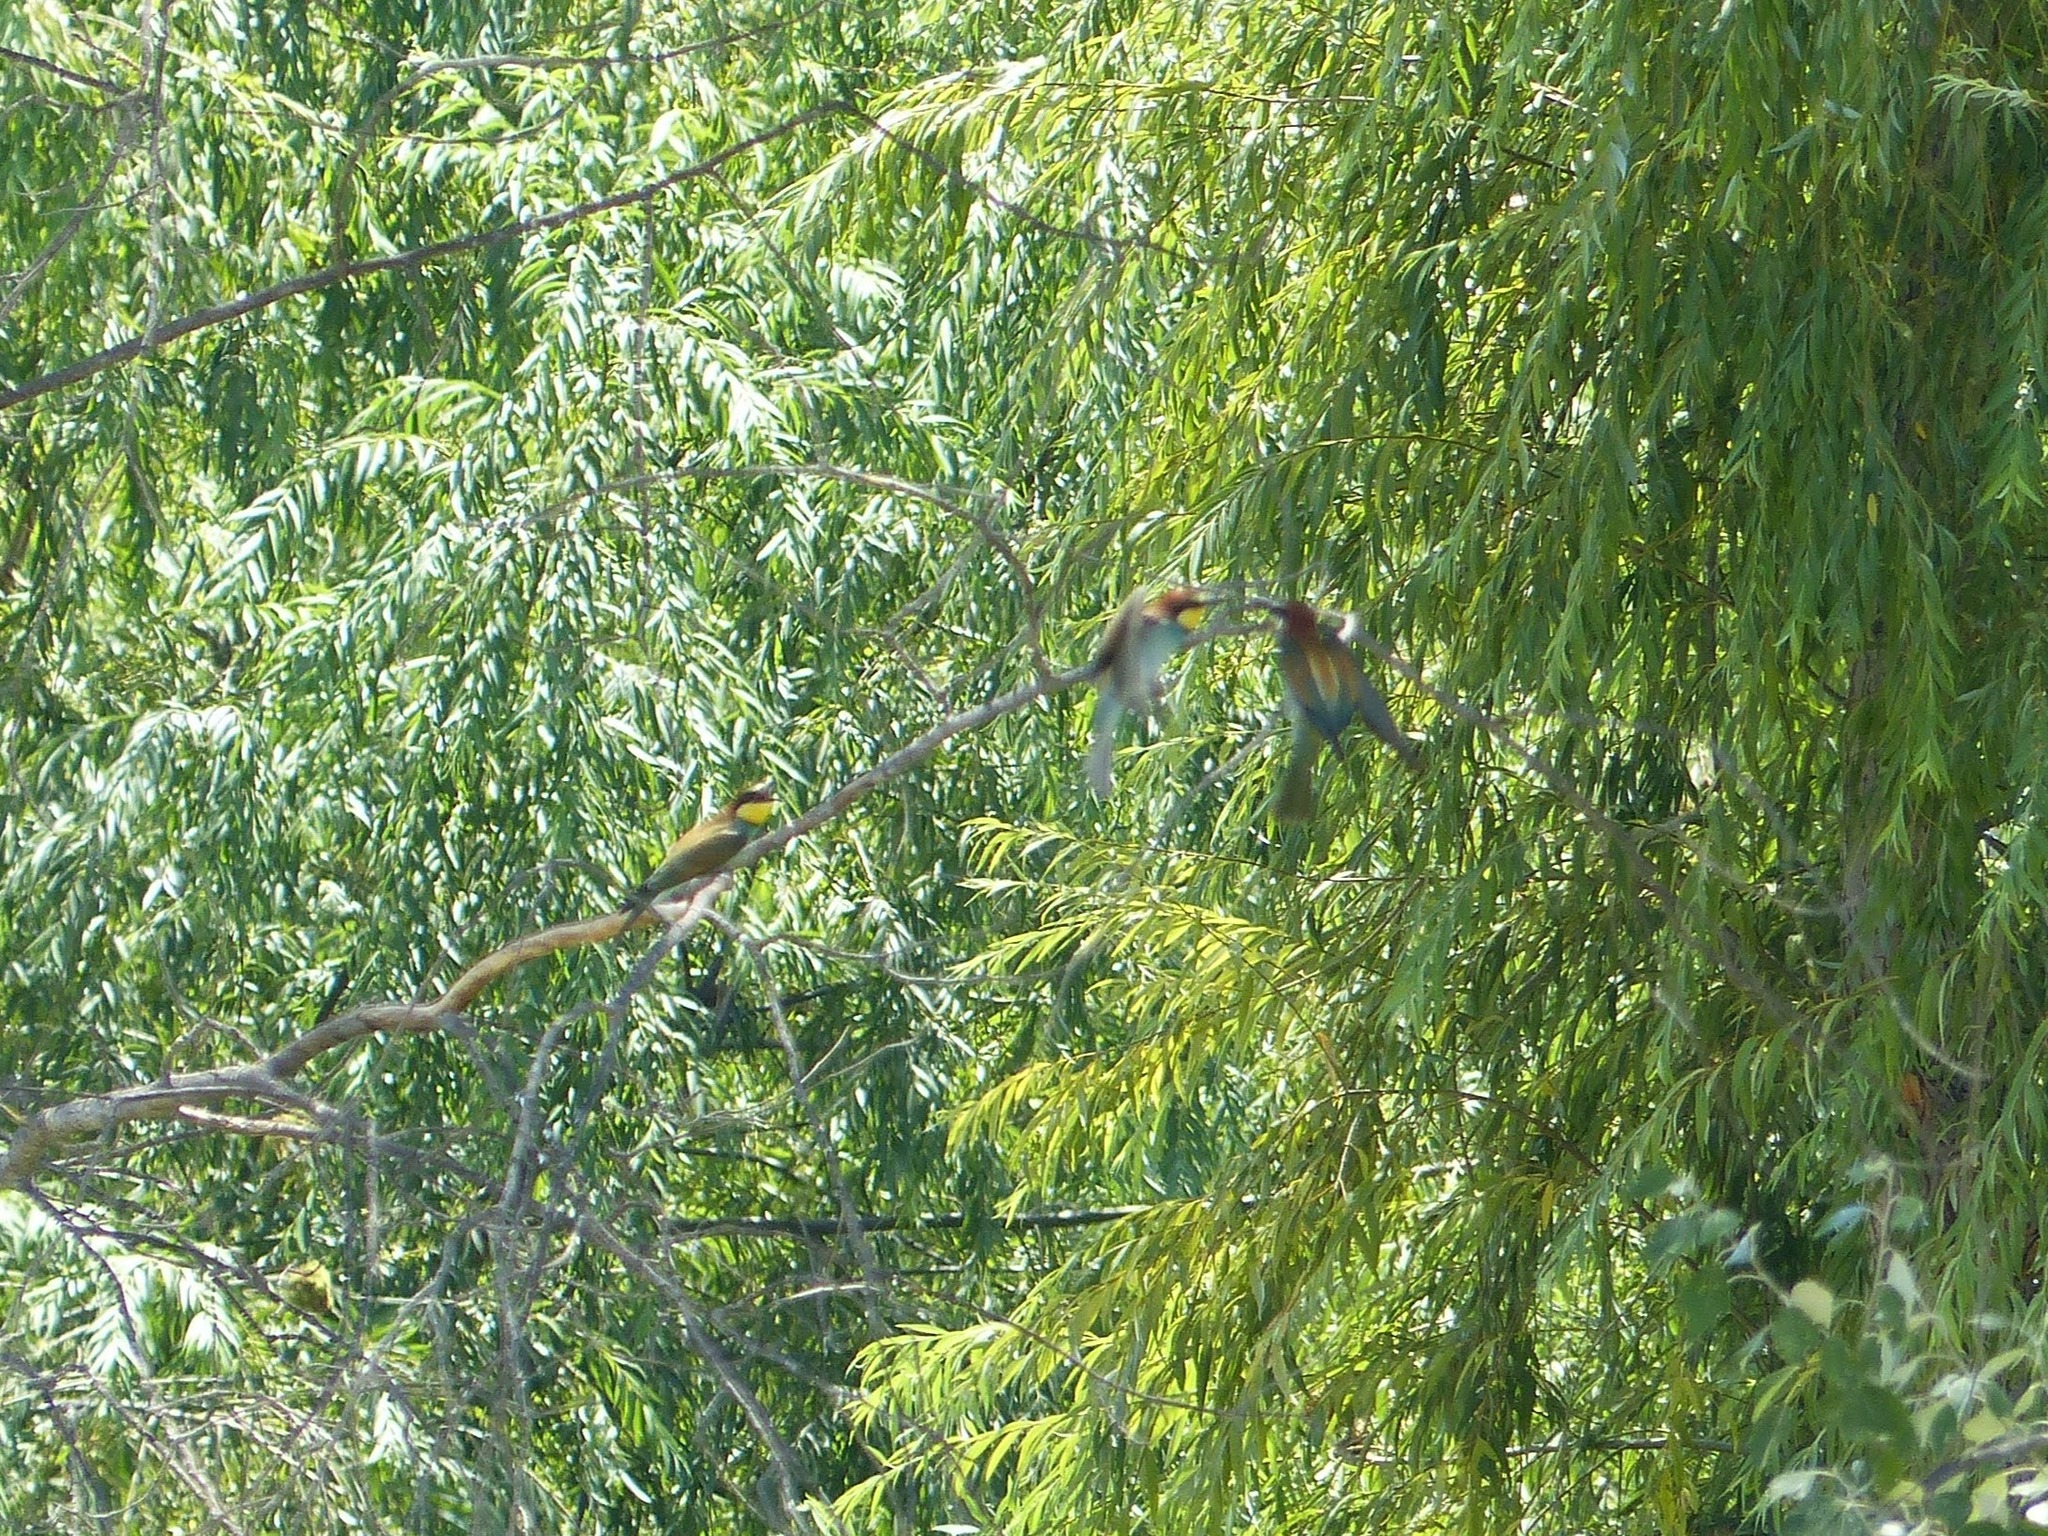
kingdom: Animalia
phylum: Chordata
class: Aves
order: Coraciiformes
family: Meropidae
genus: Merops
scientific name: Merops apiaster
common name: European bee-eater
